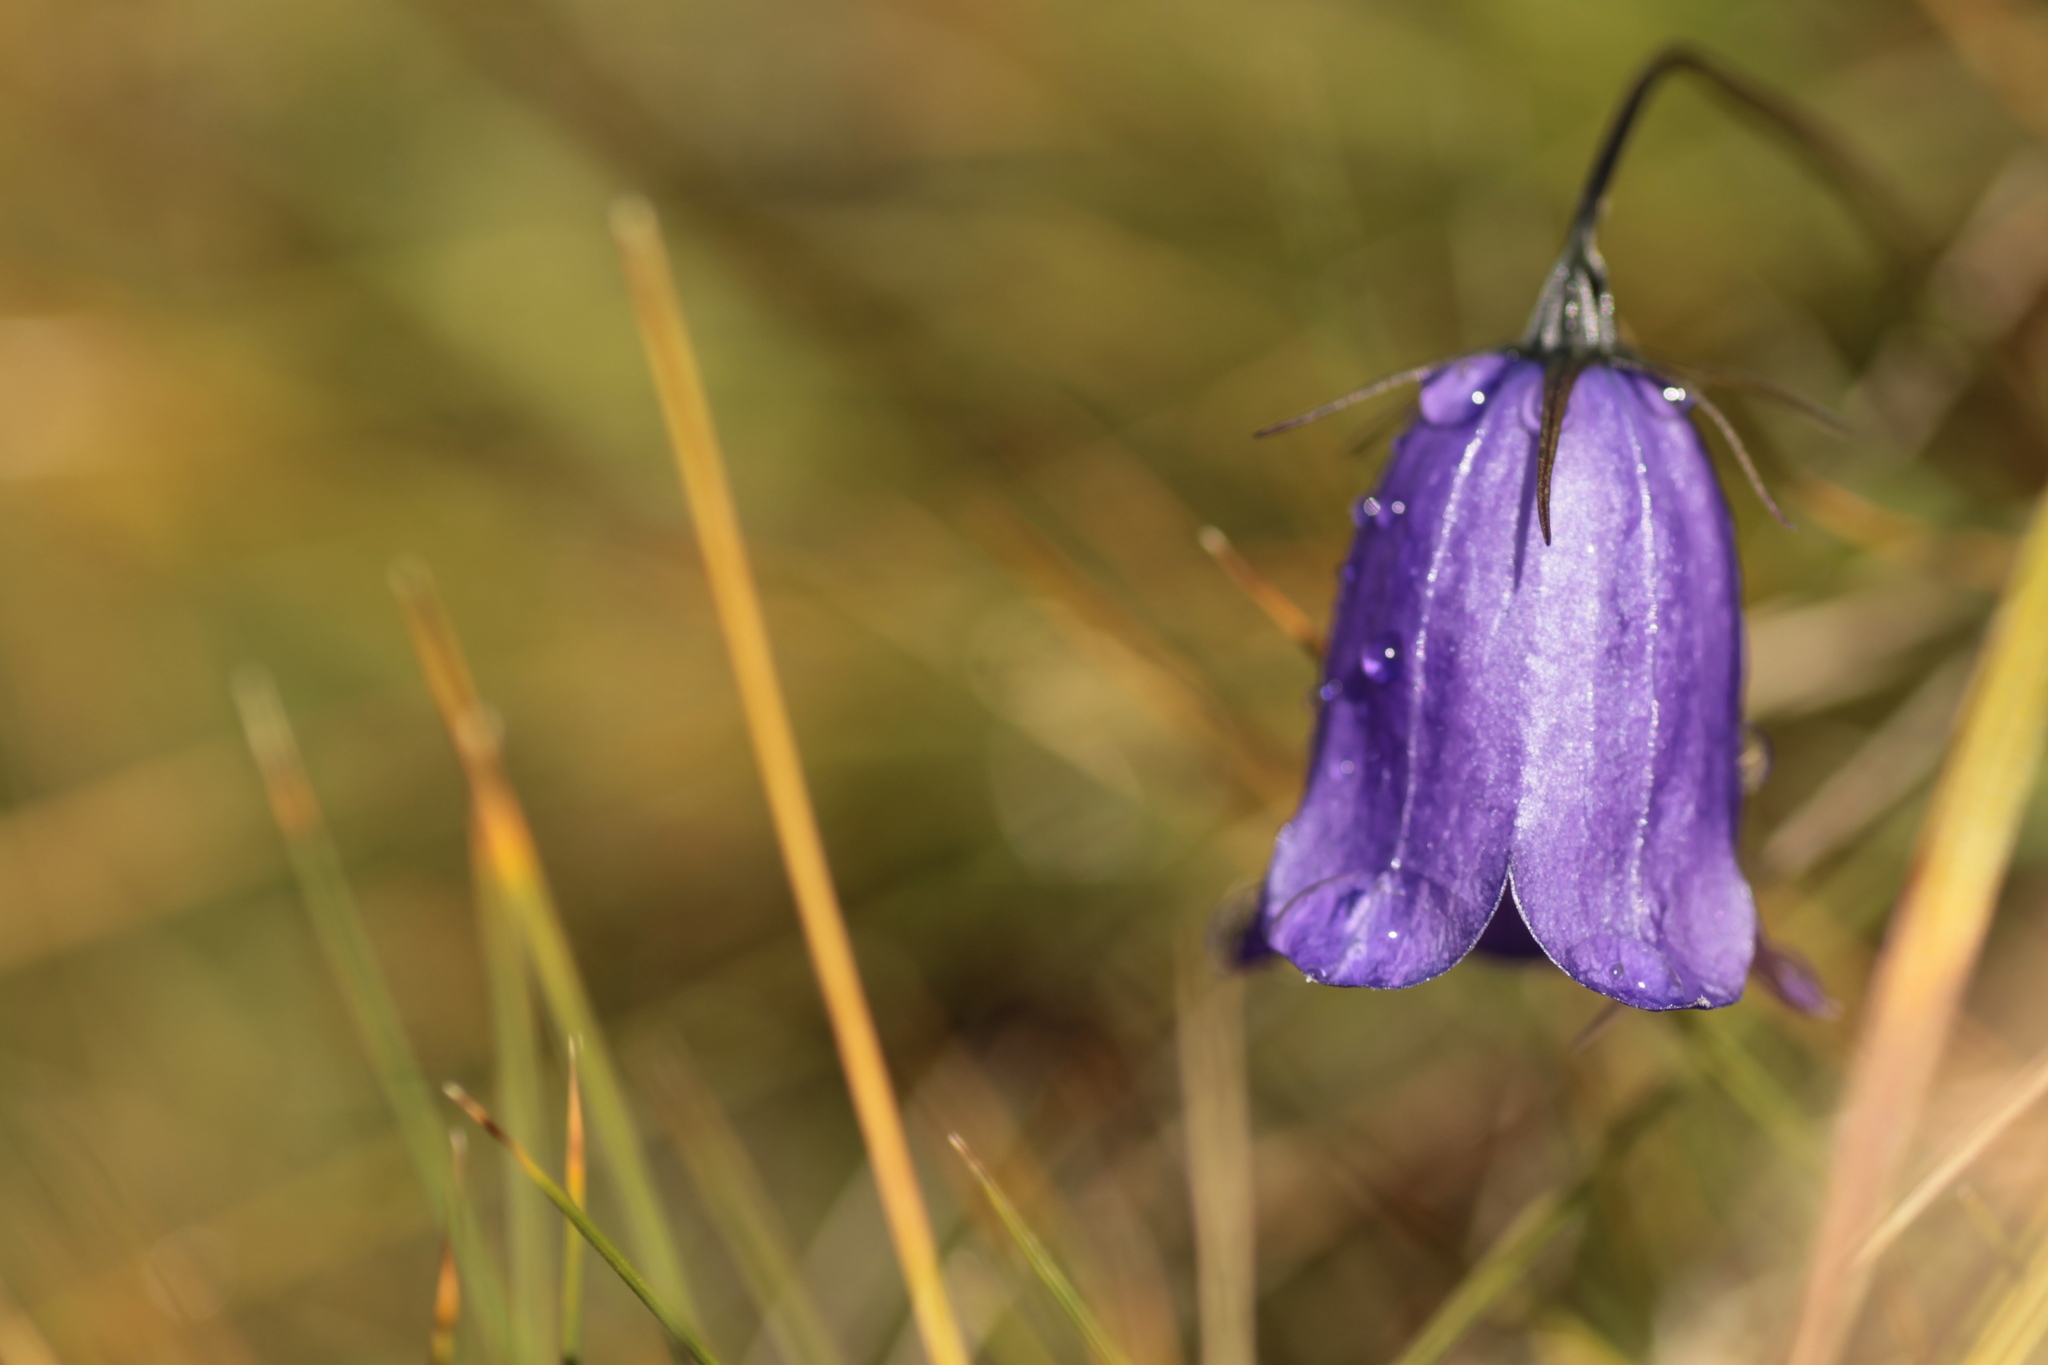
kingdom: Plantae
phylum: Tracheophyta
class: Magnoliopsida
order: Asterales
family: Campanulaceae
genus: Campanula
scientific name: Campanula scheuchzeri
